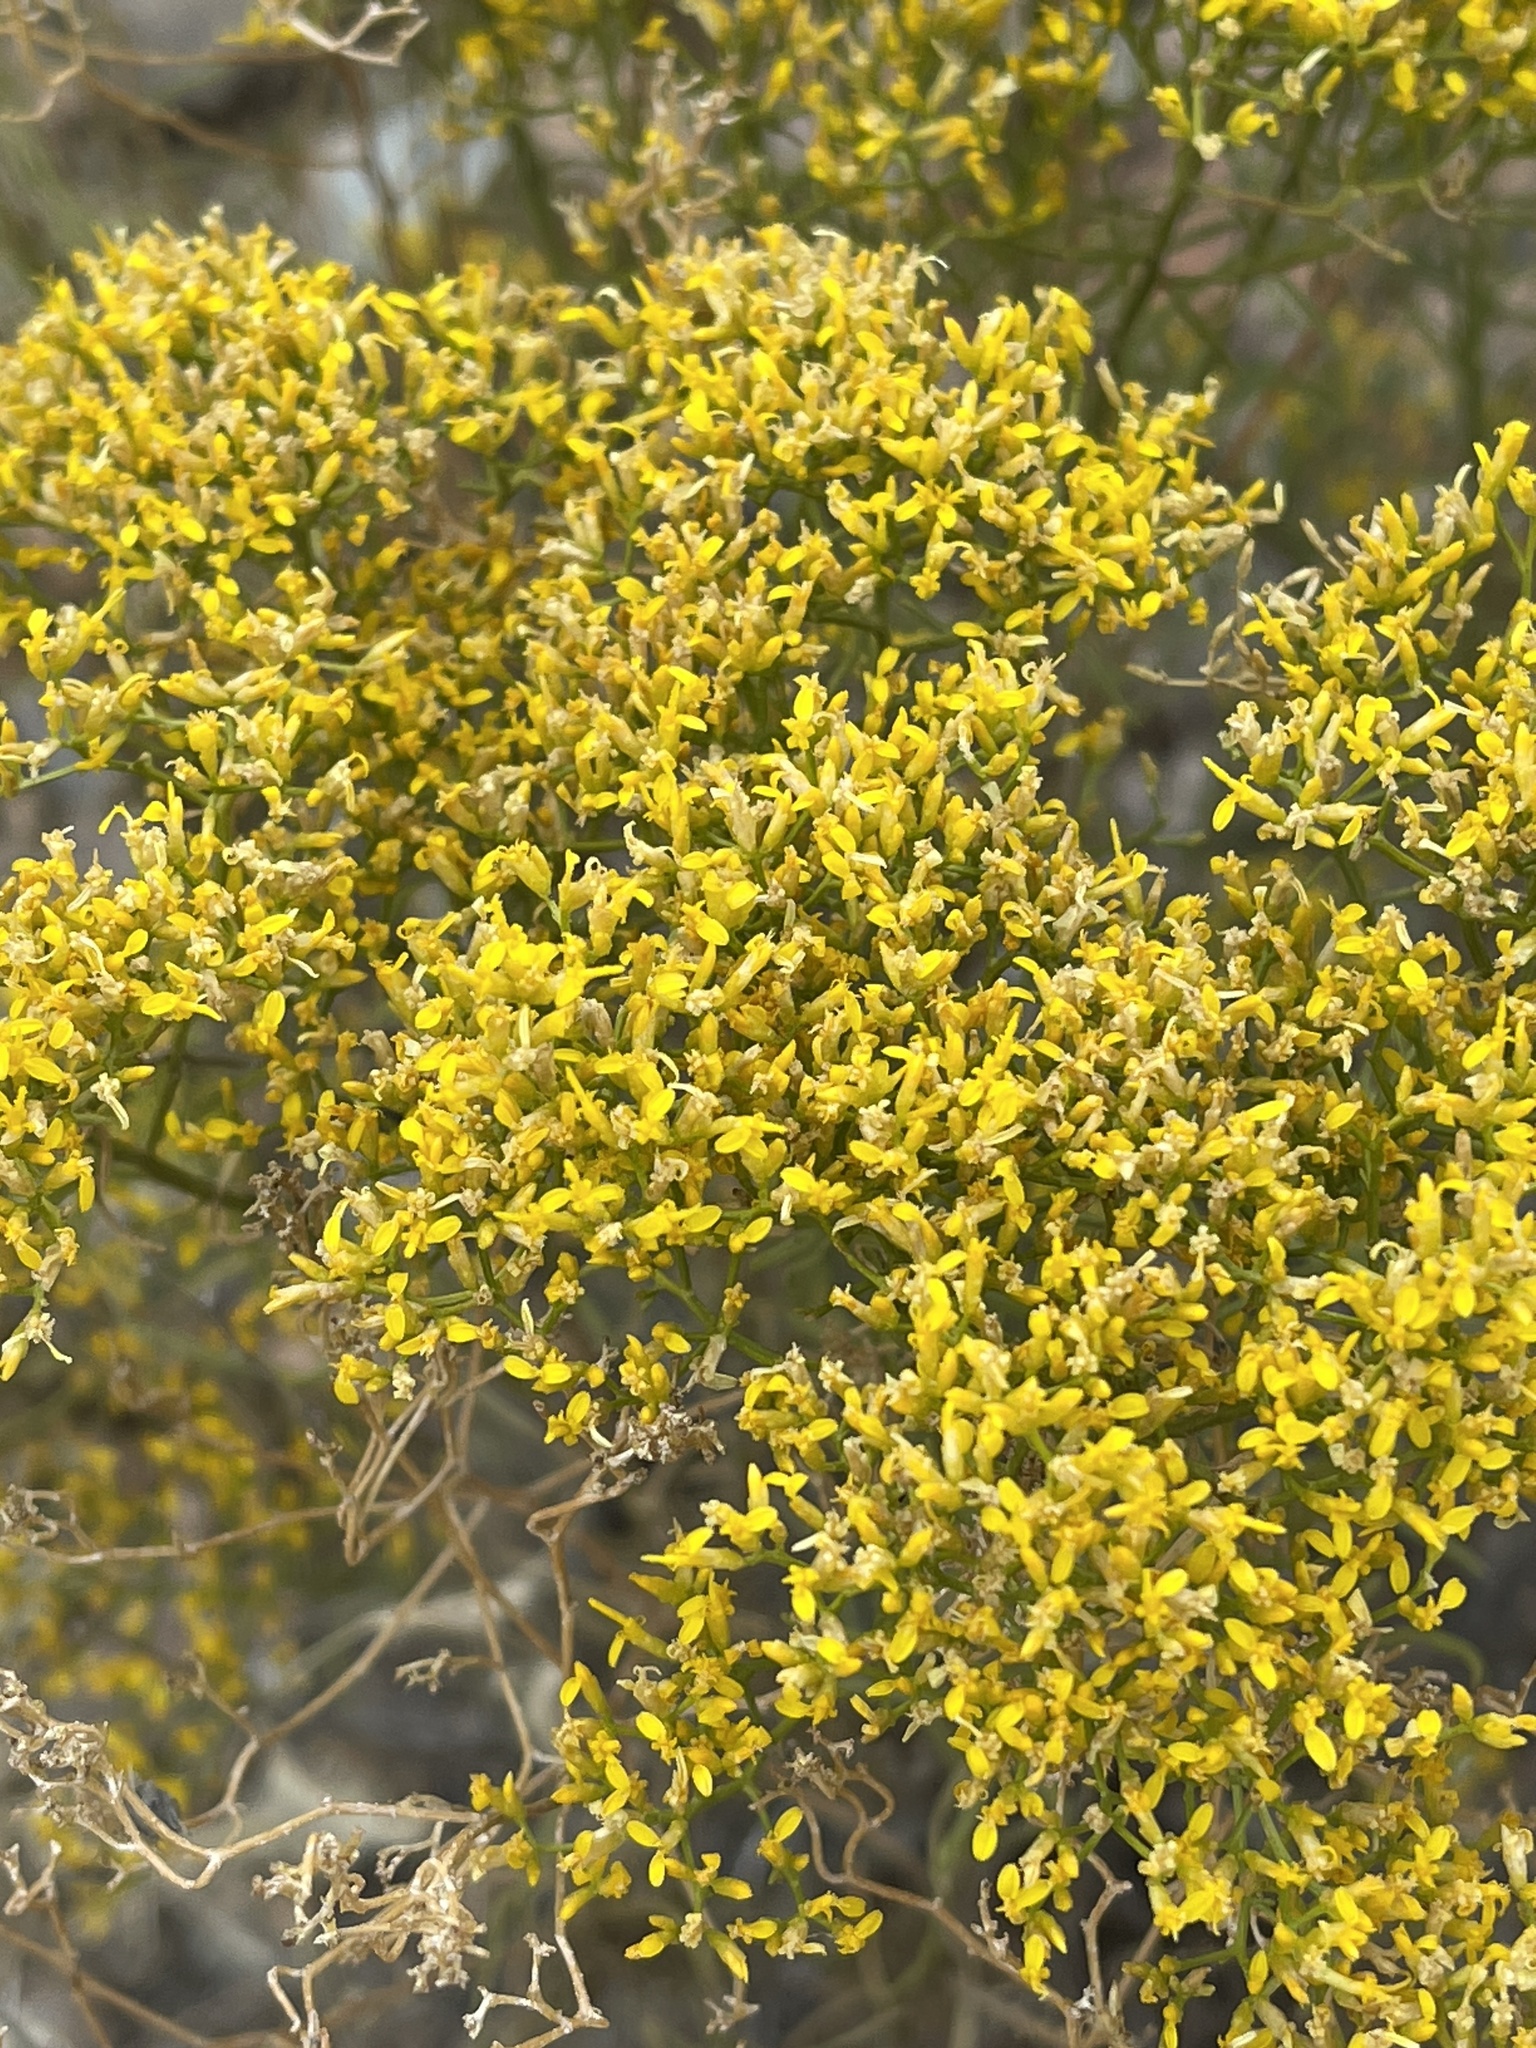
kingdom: Plantae
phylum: Tracheophyta
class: Magnoliopsida
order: Asterales
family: Asteraceae
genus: Gutierrezia
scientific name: Gutierrezia microcephala
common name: Thread snakeweed
